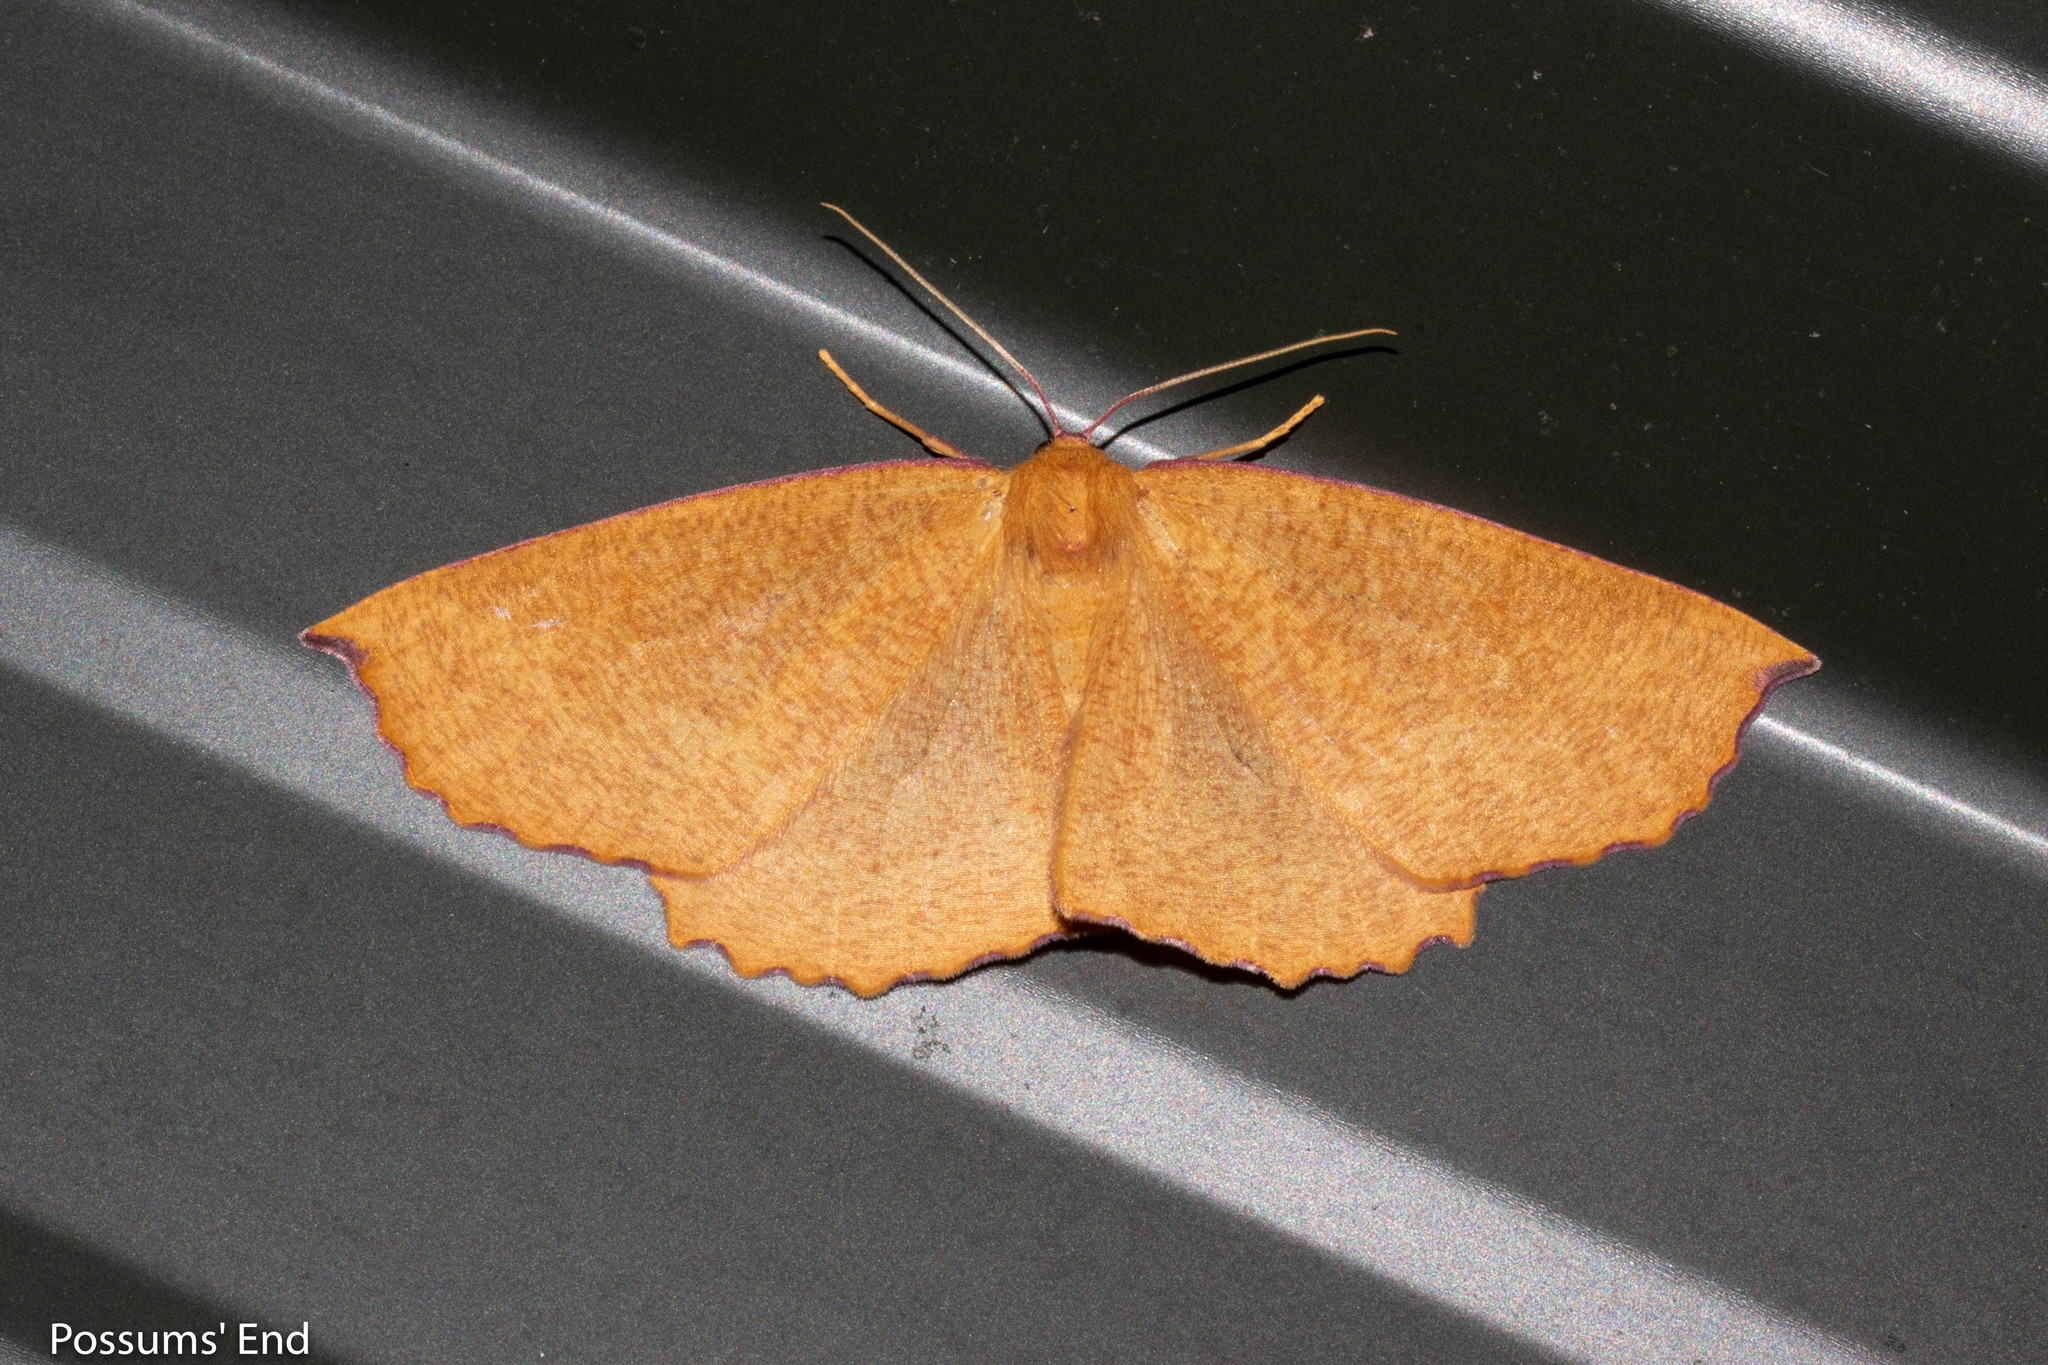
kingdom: Animalia
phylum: Arthropoda
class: Insecta
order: Lepidoptera
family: Geometridae
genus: Xyridacma
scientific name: Xyridacma alectoraria
